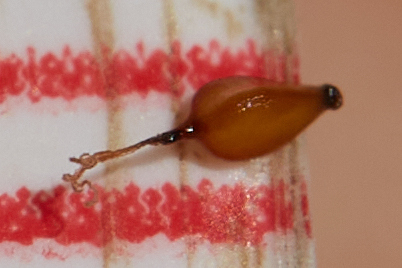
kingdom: Plantae
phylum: Tracheophyta
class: Liliopsida
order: Poales
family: Cyperaceae
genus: Cyperus
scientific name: Cyperus eragrostis
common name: Tall flatsedge
